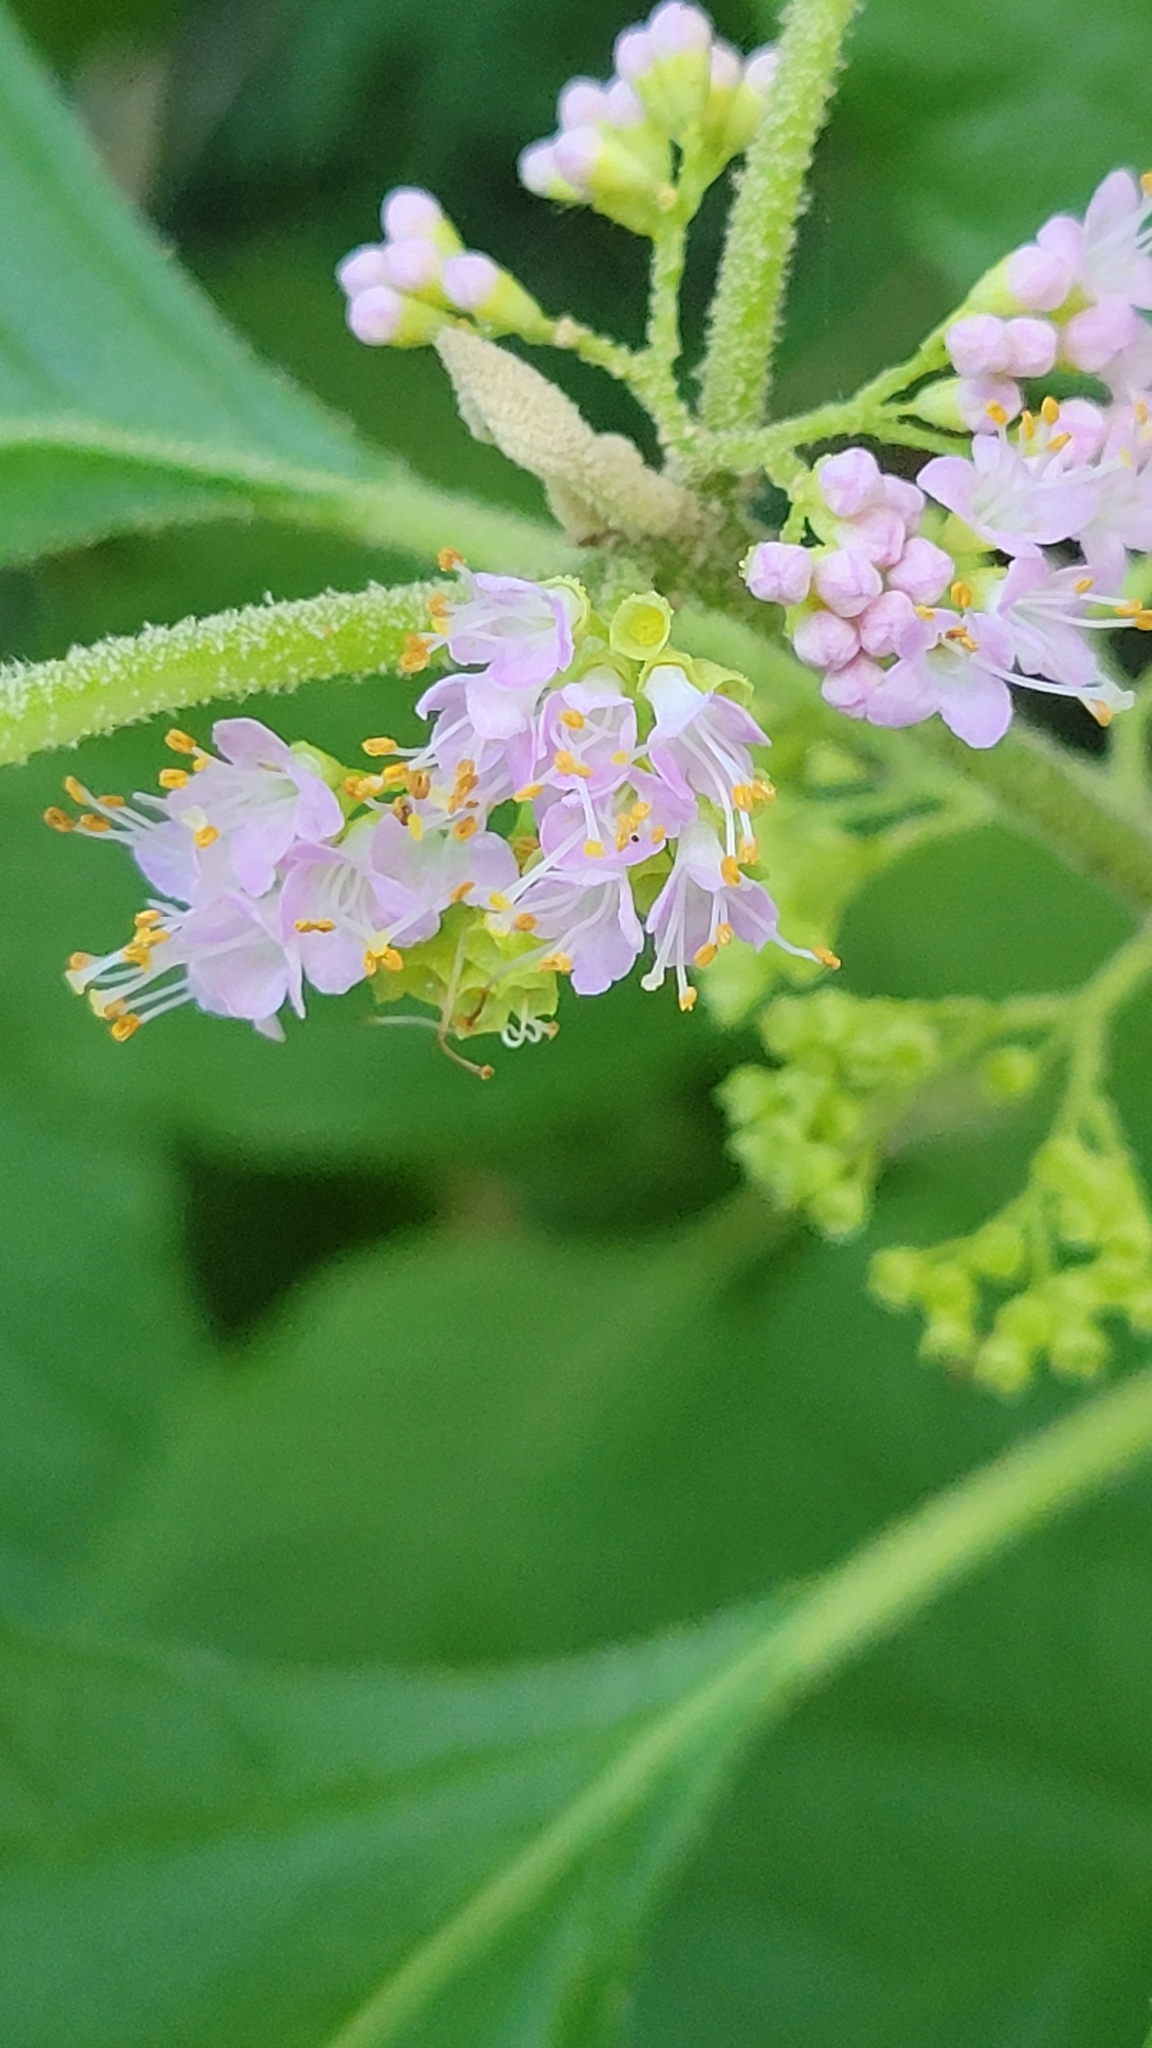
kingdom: Plantae
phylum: Tracheophyta
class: Magnoliopsida
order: Lamiales
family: Lamiaceae
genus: Callicarpa
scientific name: Callicarpa americana
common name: American beautyberry
